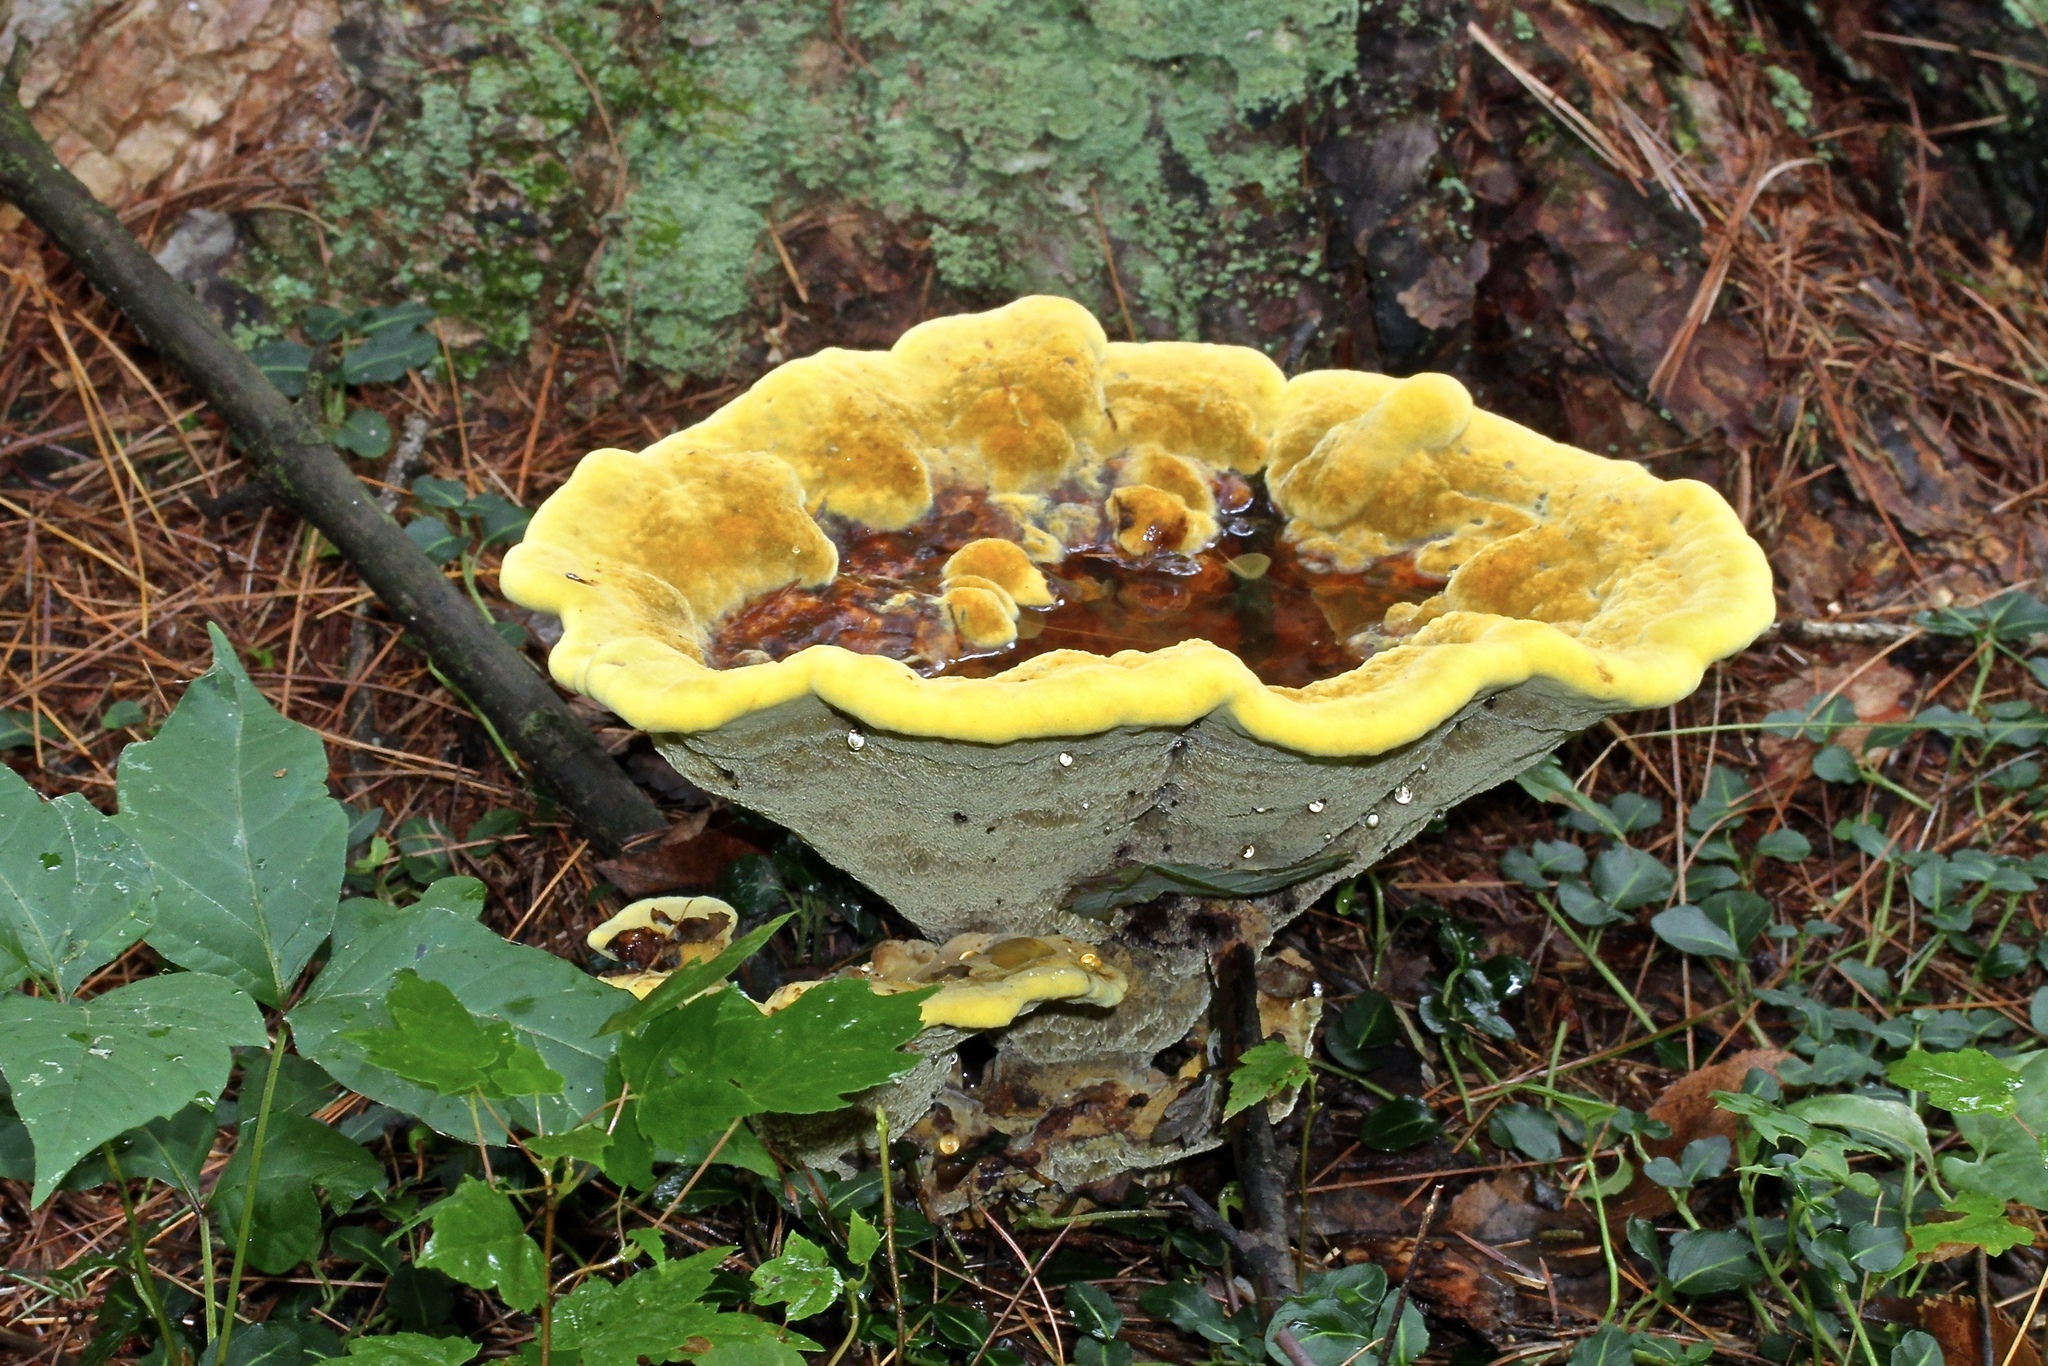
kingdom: Fungi
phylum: Basidiomycota
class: Agaricomycetes
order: Polyporales
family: Laetiporaceae
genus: Phaeolus
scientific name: Phaeolus schweinitzii
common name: Dyer's mazegill
